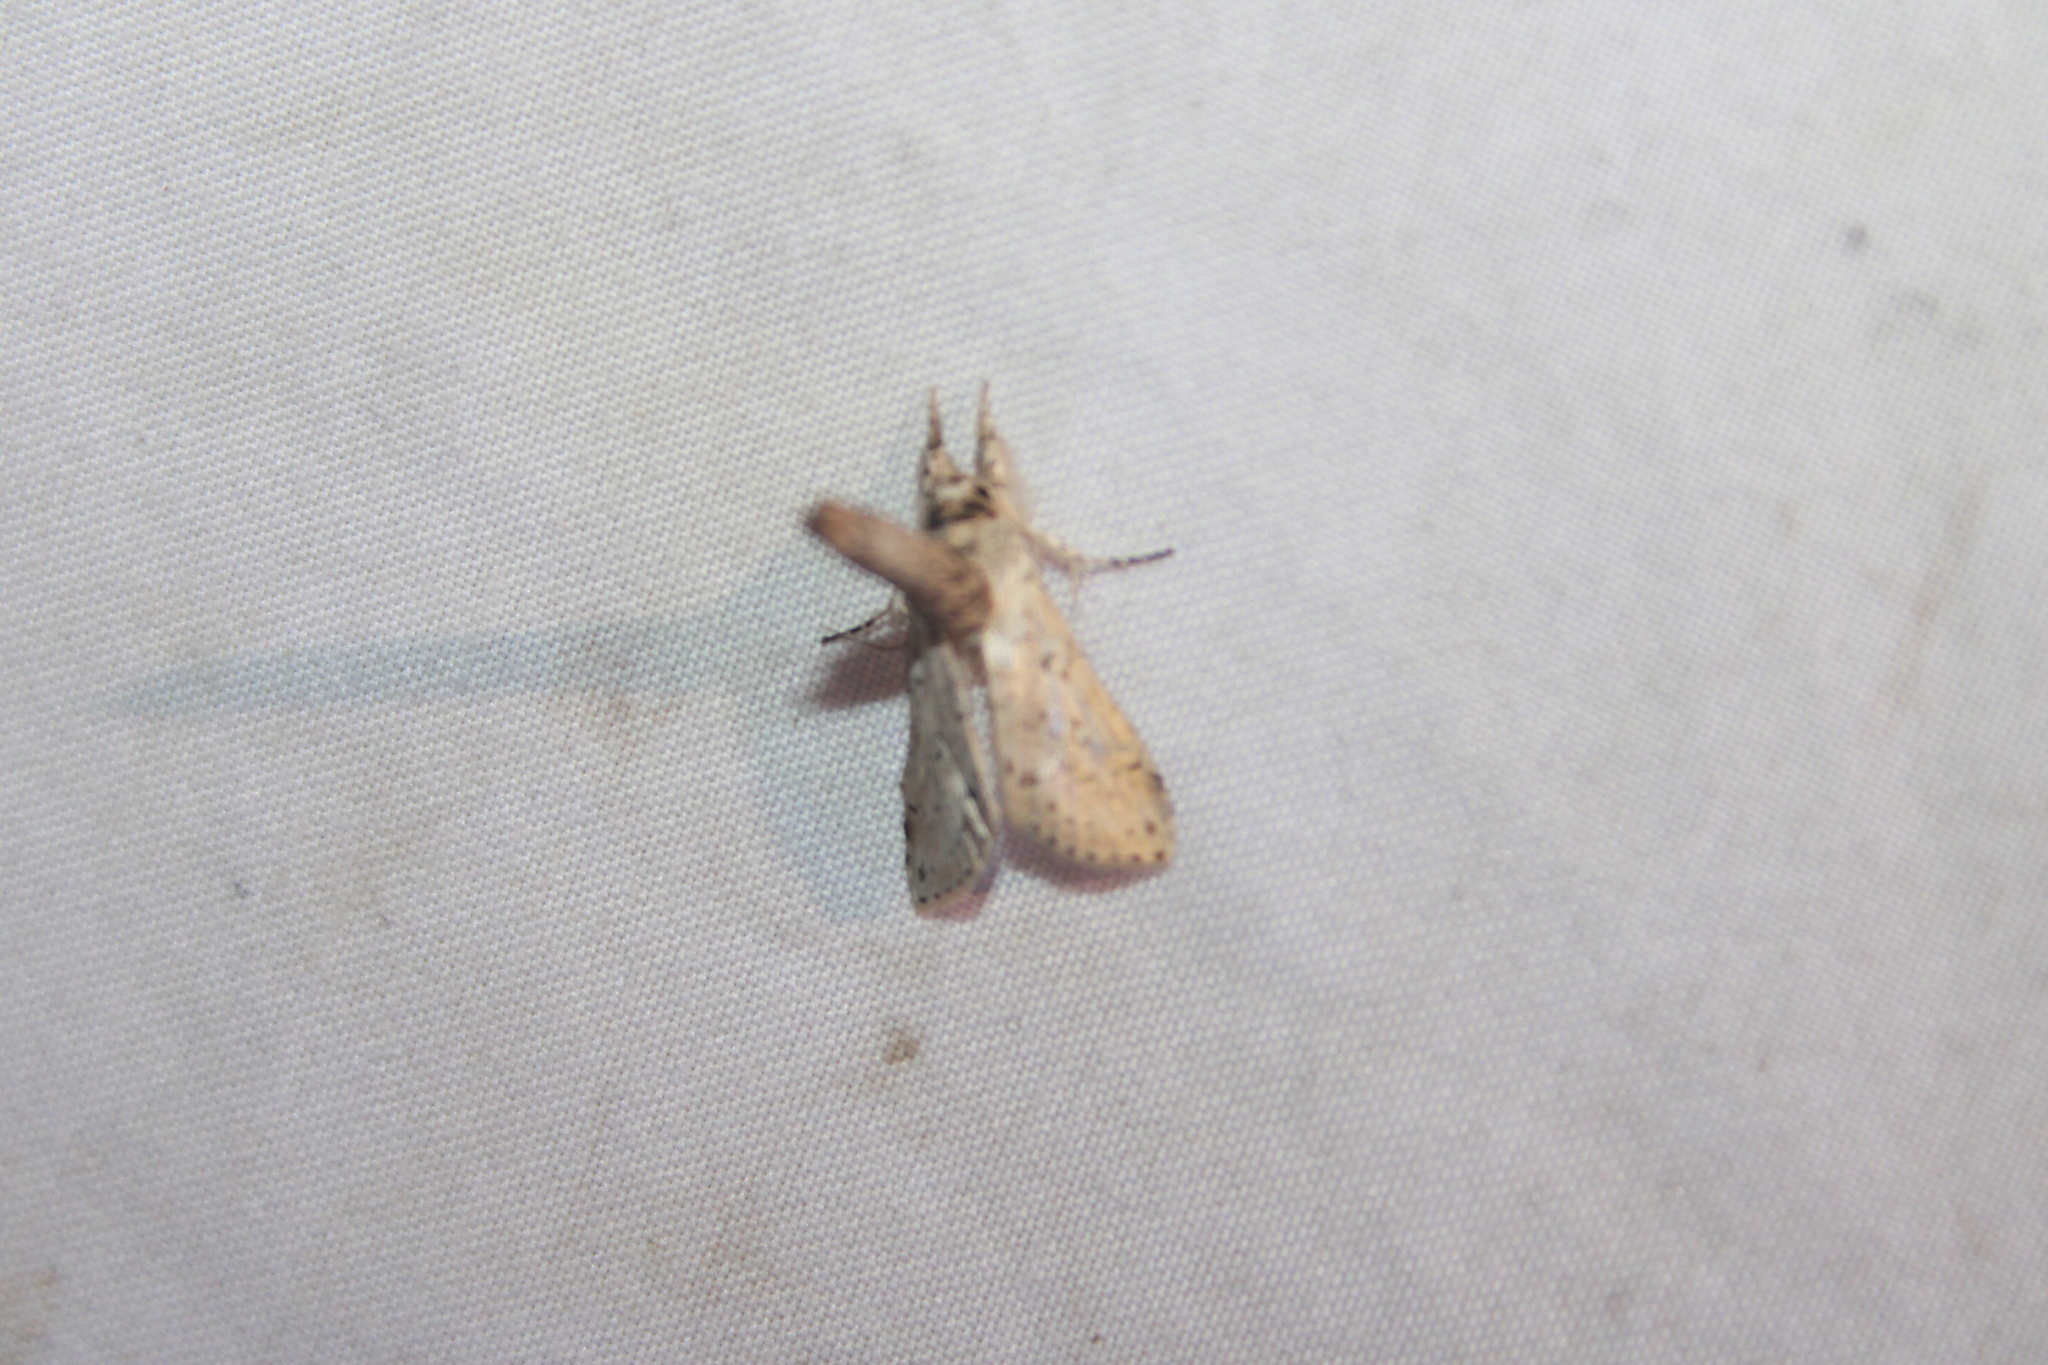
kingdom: Animalia
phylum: Arthropoda
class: Insecta
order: Lepidoptera
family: Nolidae
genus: Motya
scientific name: Motya abseuzalis
